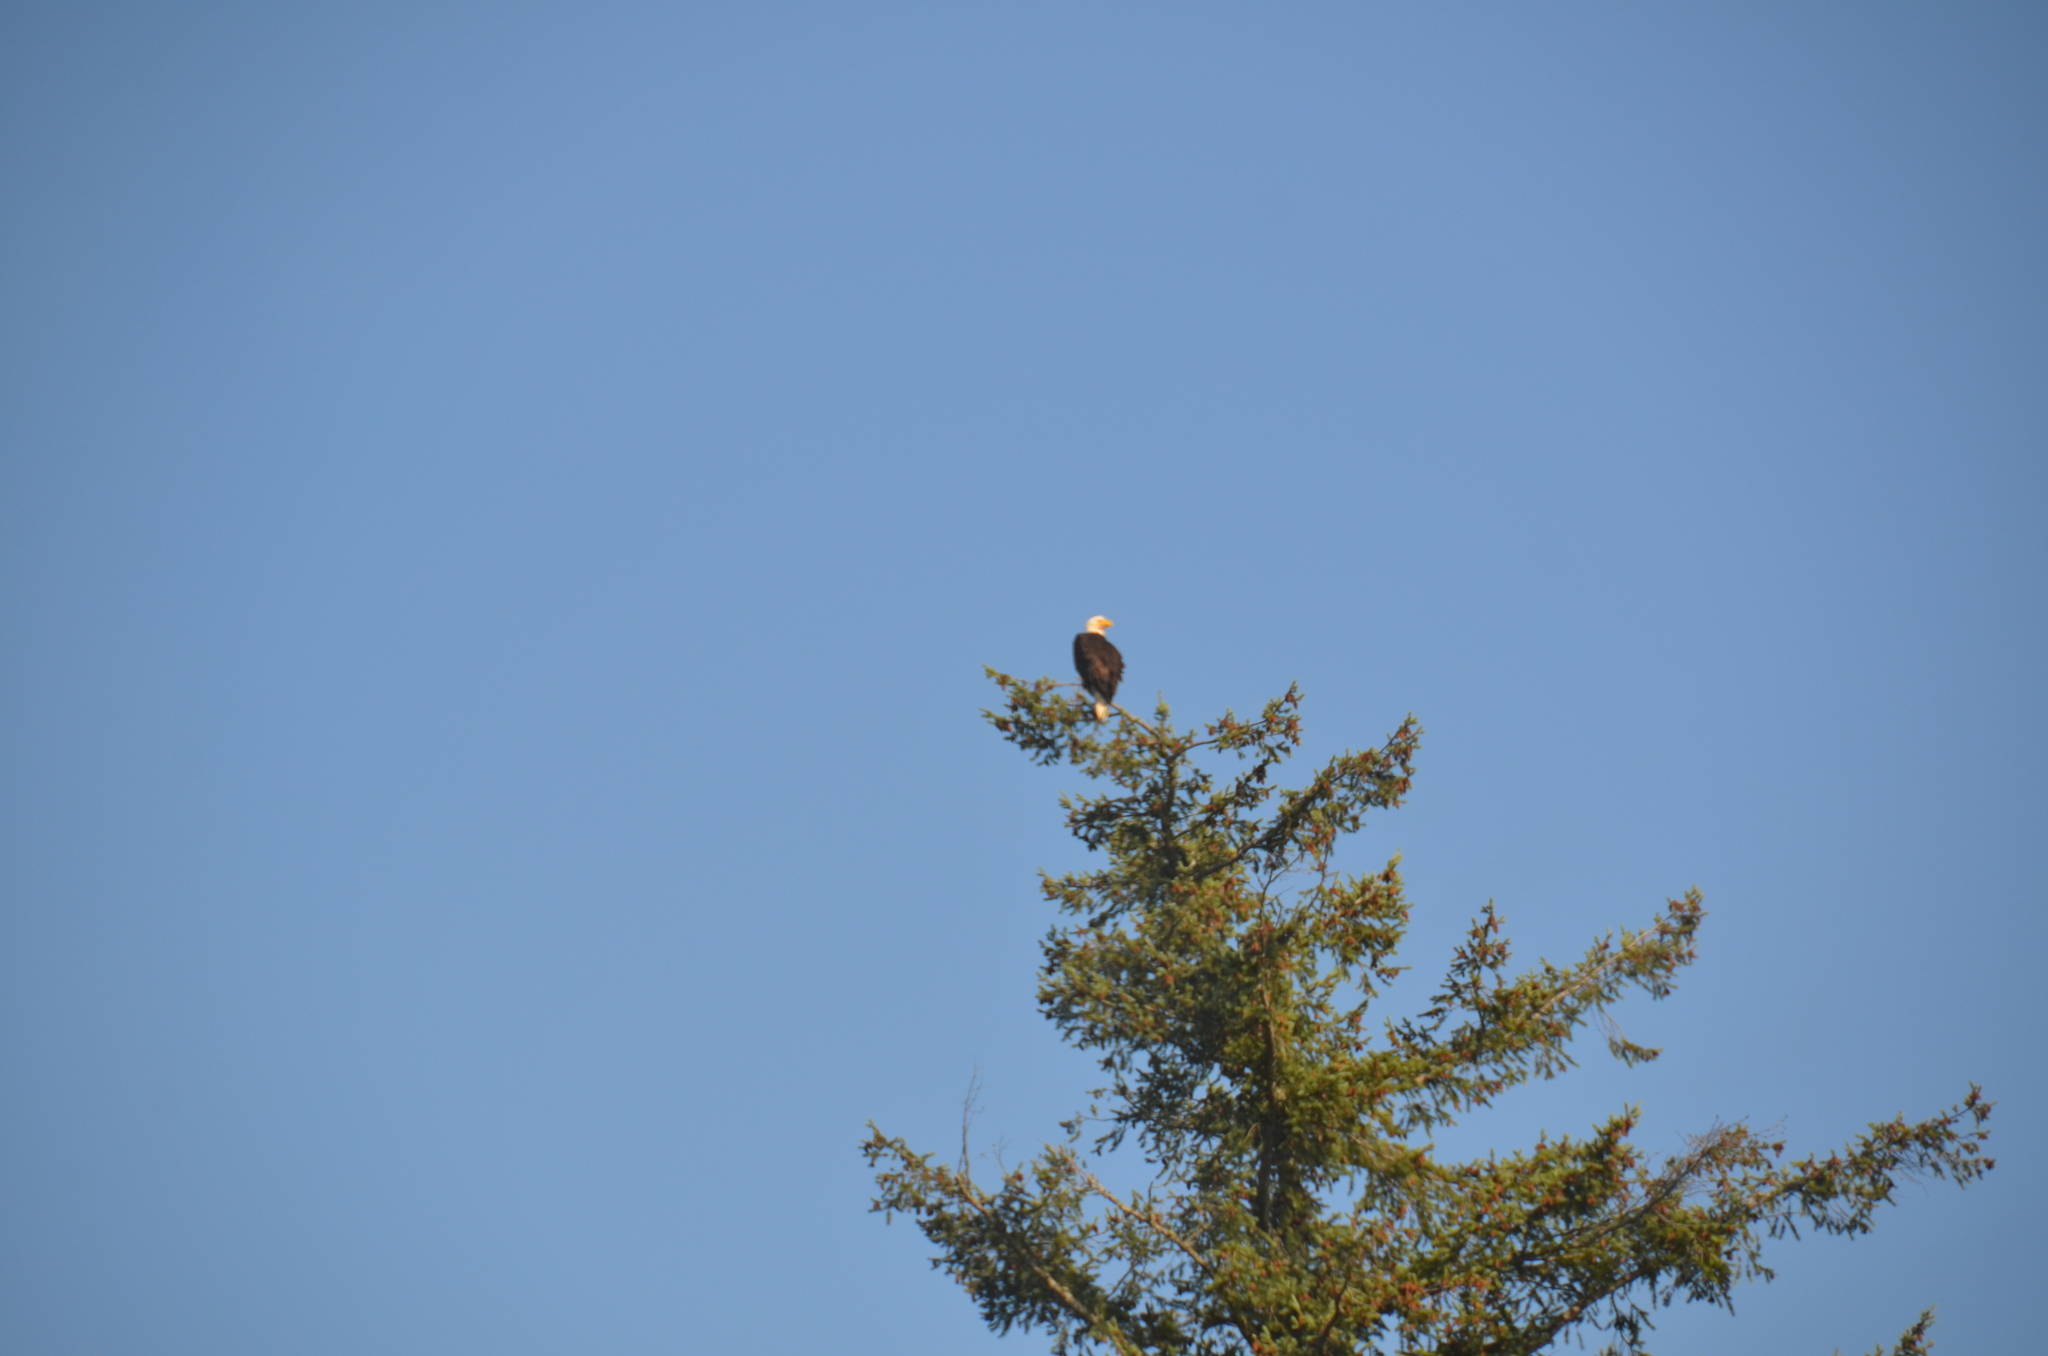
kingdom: Animalia
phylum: Chordata
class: Aves
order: Accipitriformes
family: Accipitridae
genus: Haliaeetus
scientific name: Haliaeetus leucocephalus
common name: Bald eagle
